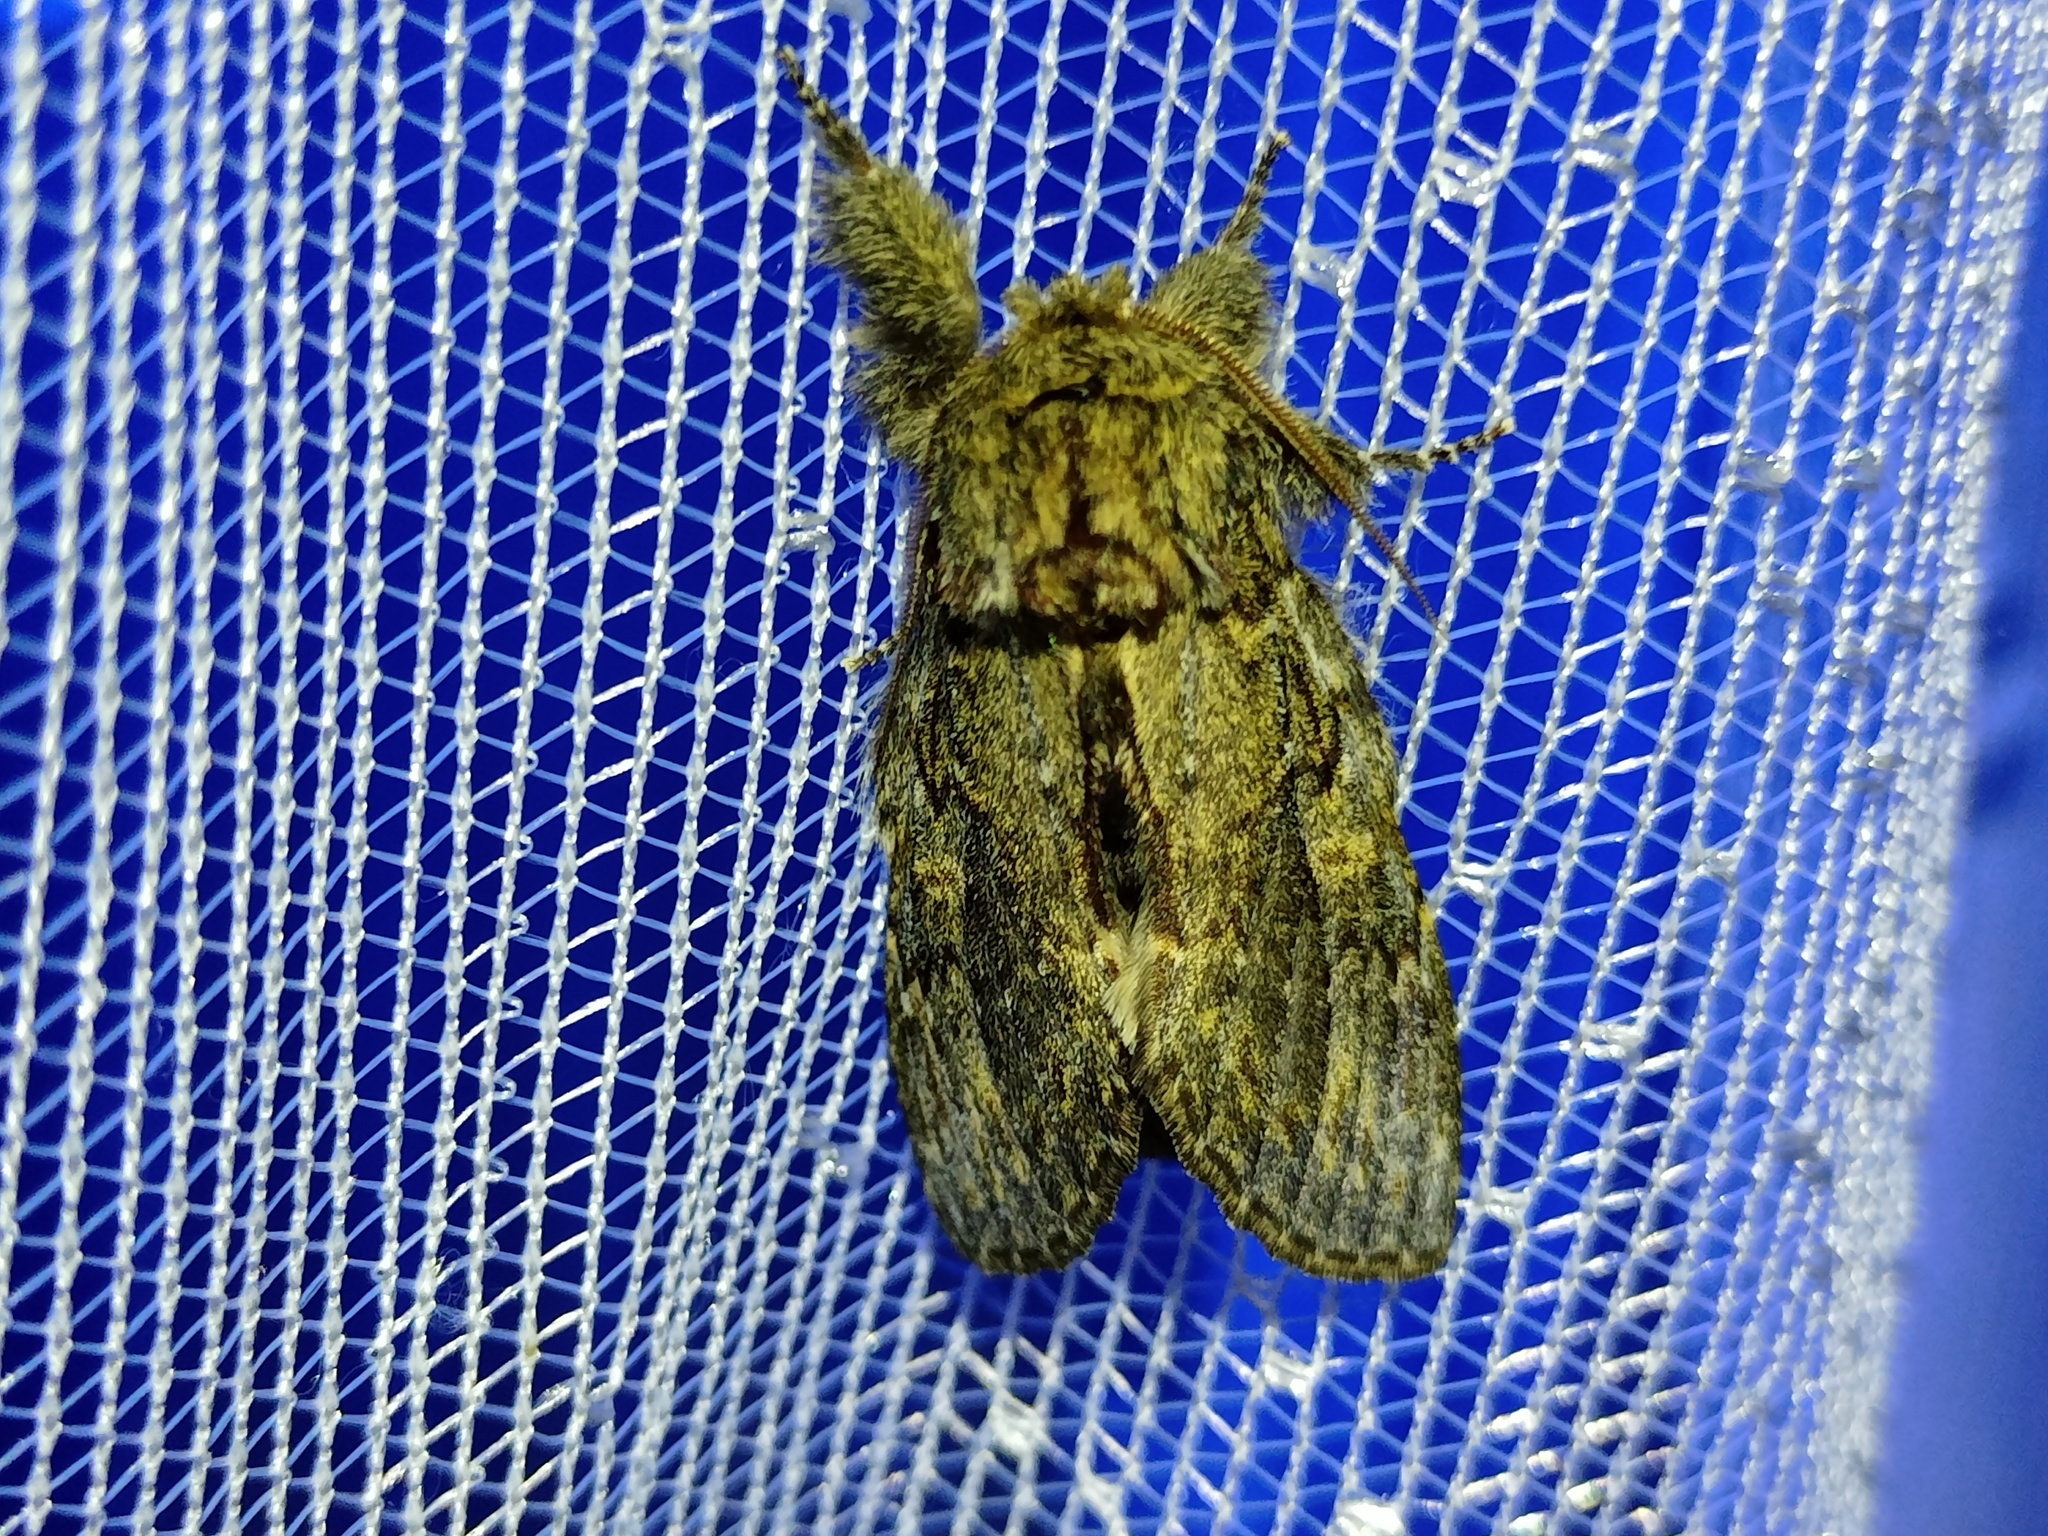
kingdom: Animalia
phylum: Arthropoda
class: Insecta
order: Lepidoptera
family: Notodontidae
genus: Peridea
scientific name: Peridea anceps
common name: Great prominent
